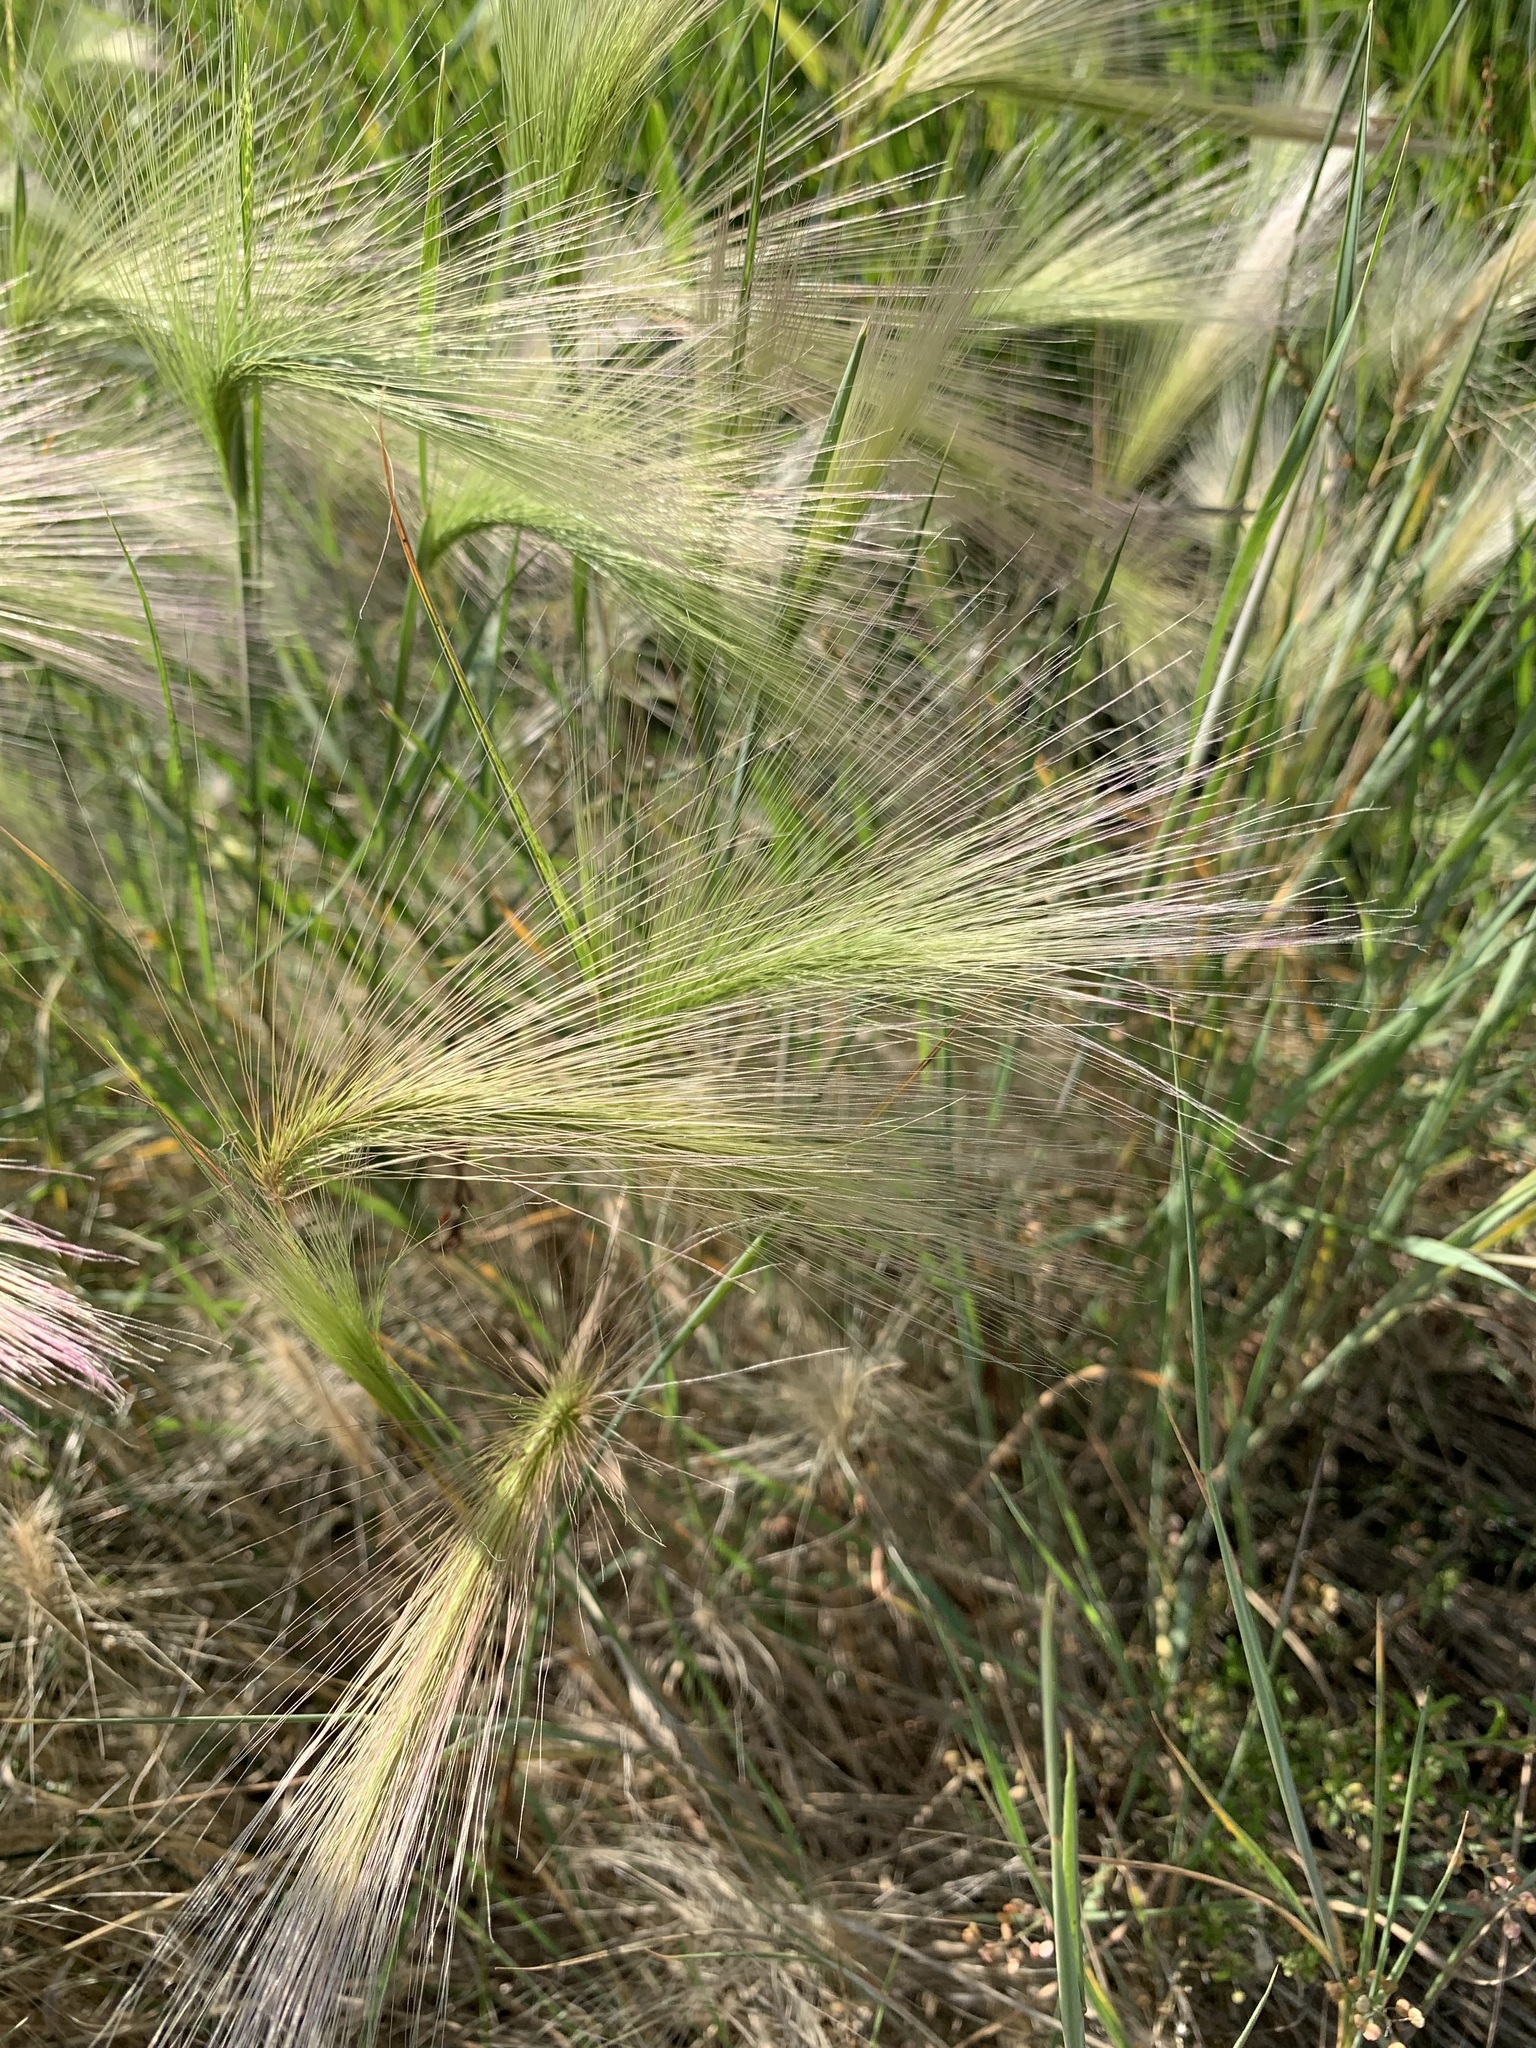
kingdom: Plantae
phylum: Tracheophyta
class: Liliopsida
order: Poales
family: Poaceae
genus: Hordeum
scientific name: Hordeum jubatum
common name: Foxtail barley
